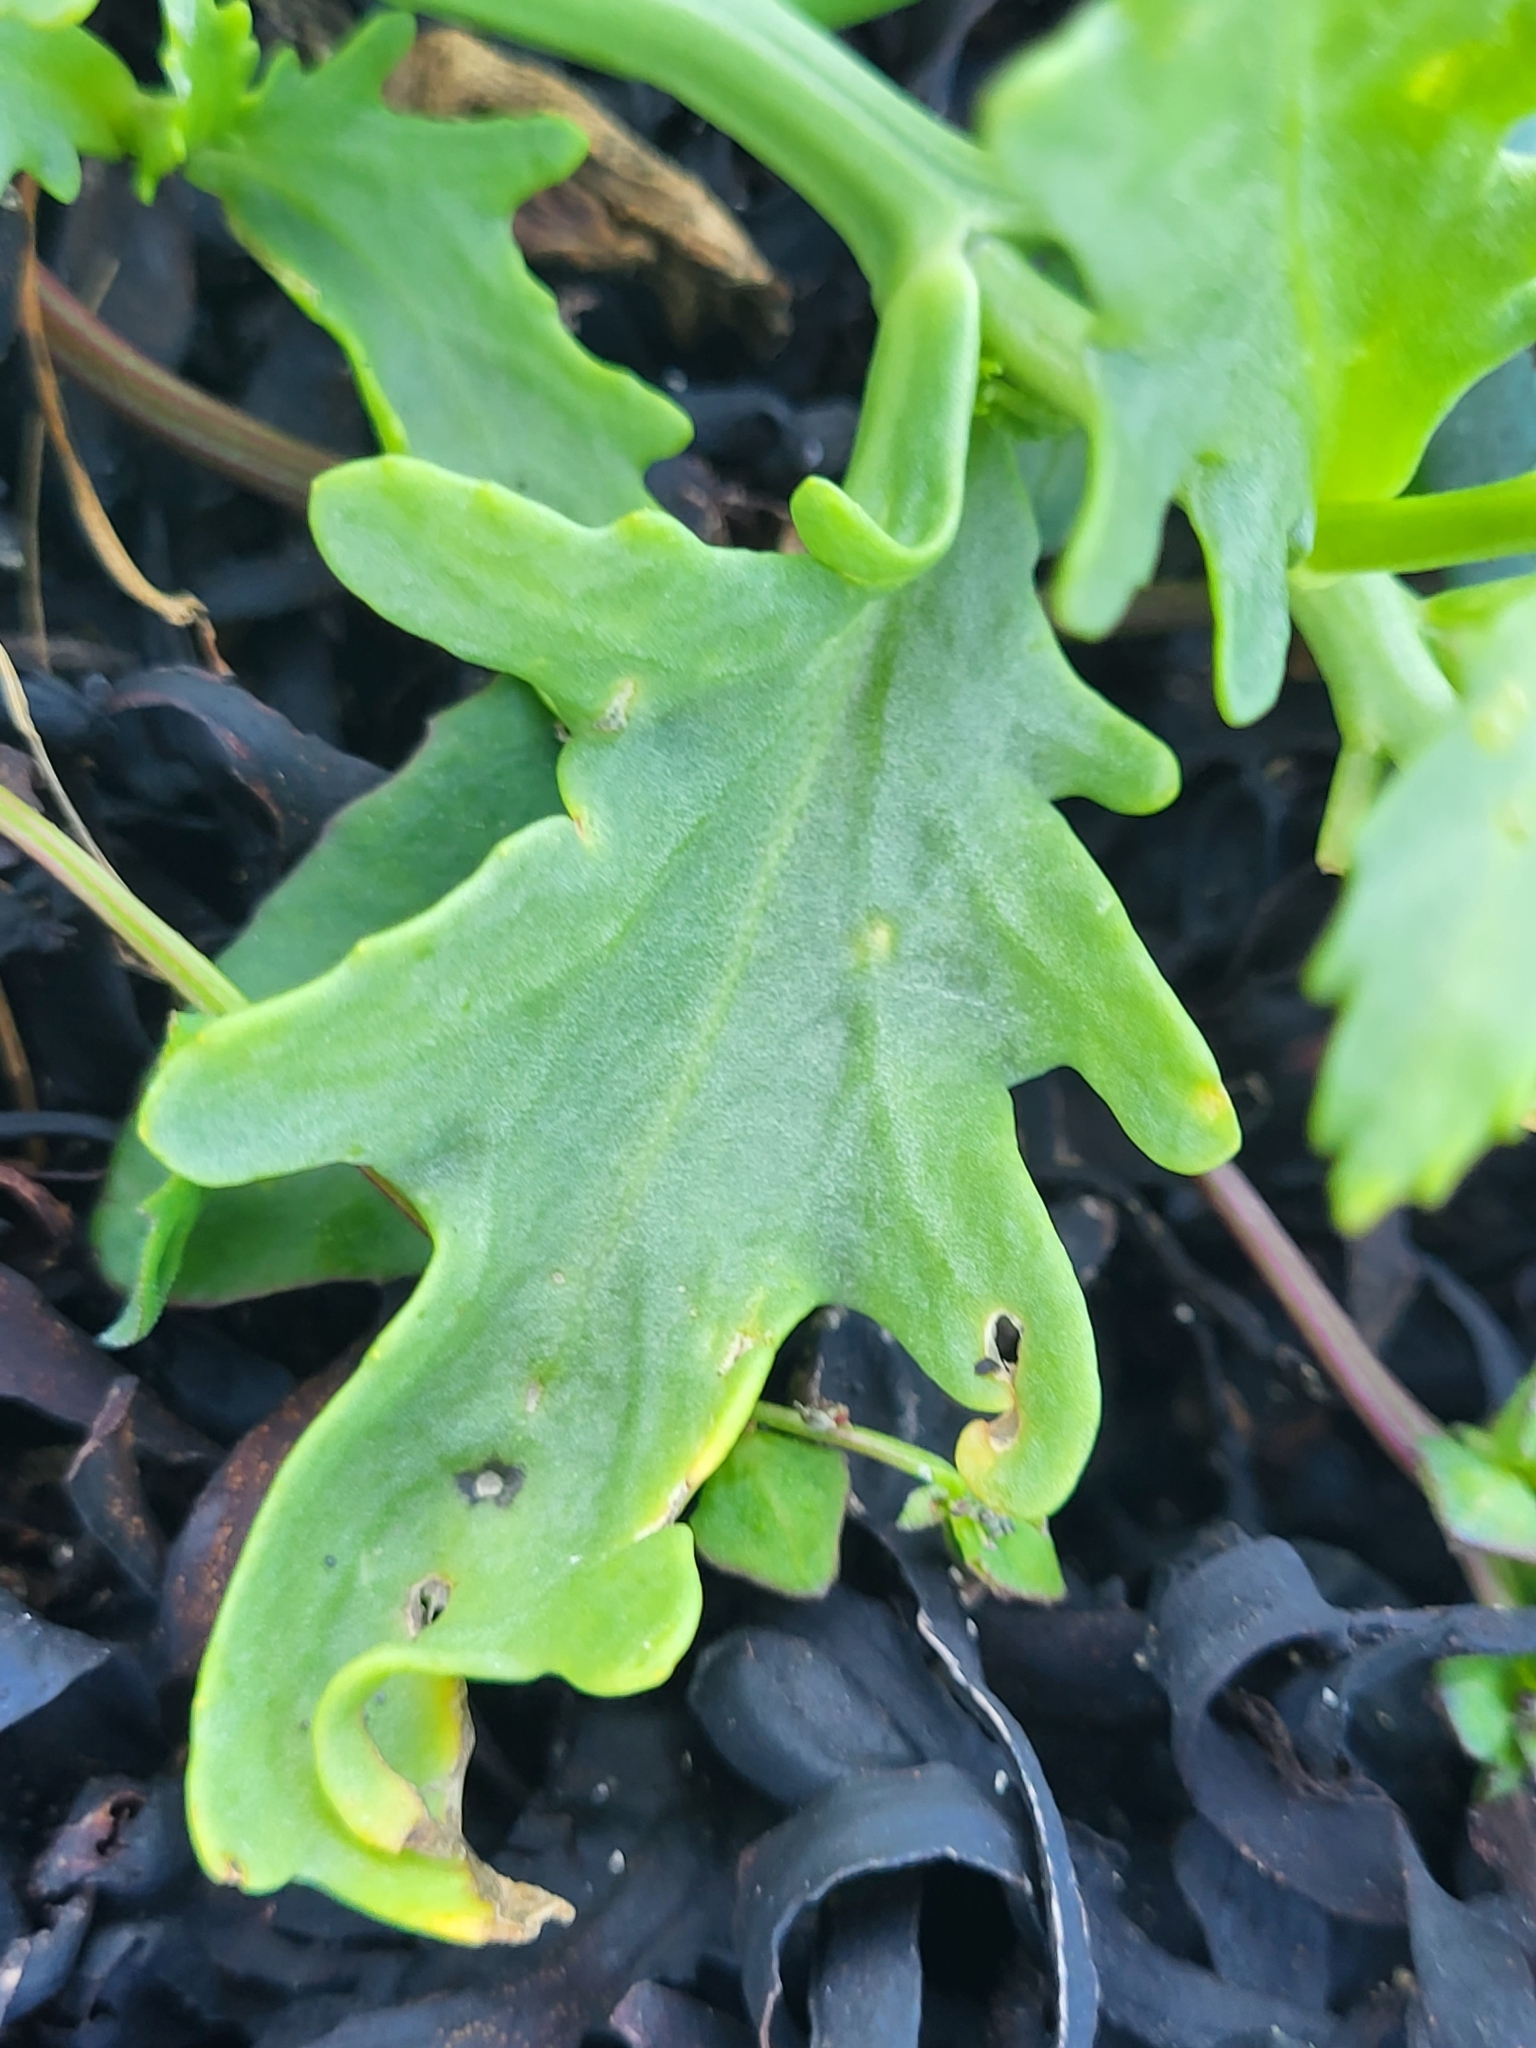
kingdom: Plantae
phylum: Tracheophyta
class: Magnoliopsida
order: Brassicales
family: Brassicaceae
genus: Cakile
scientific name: Cakile arctica
